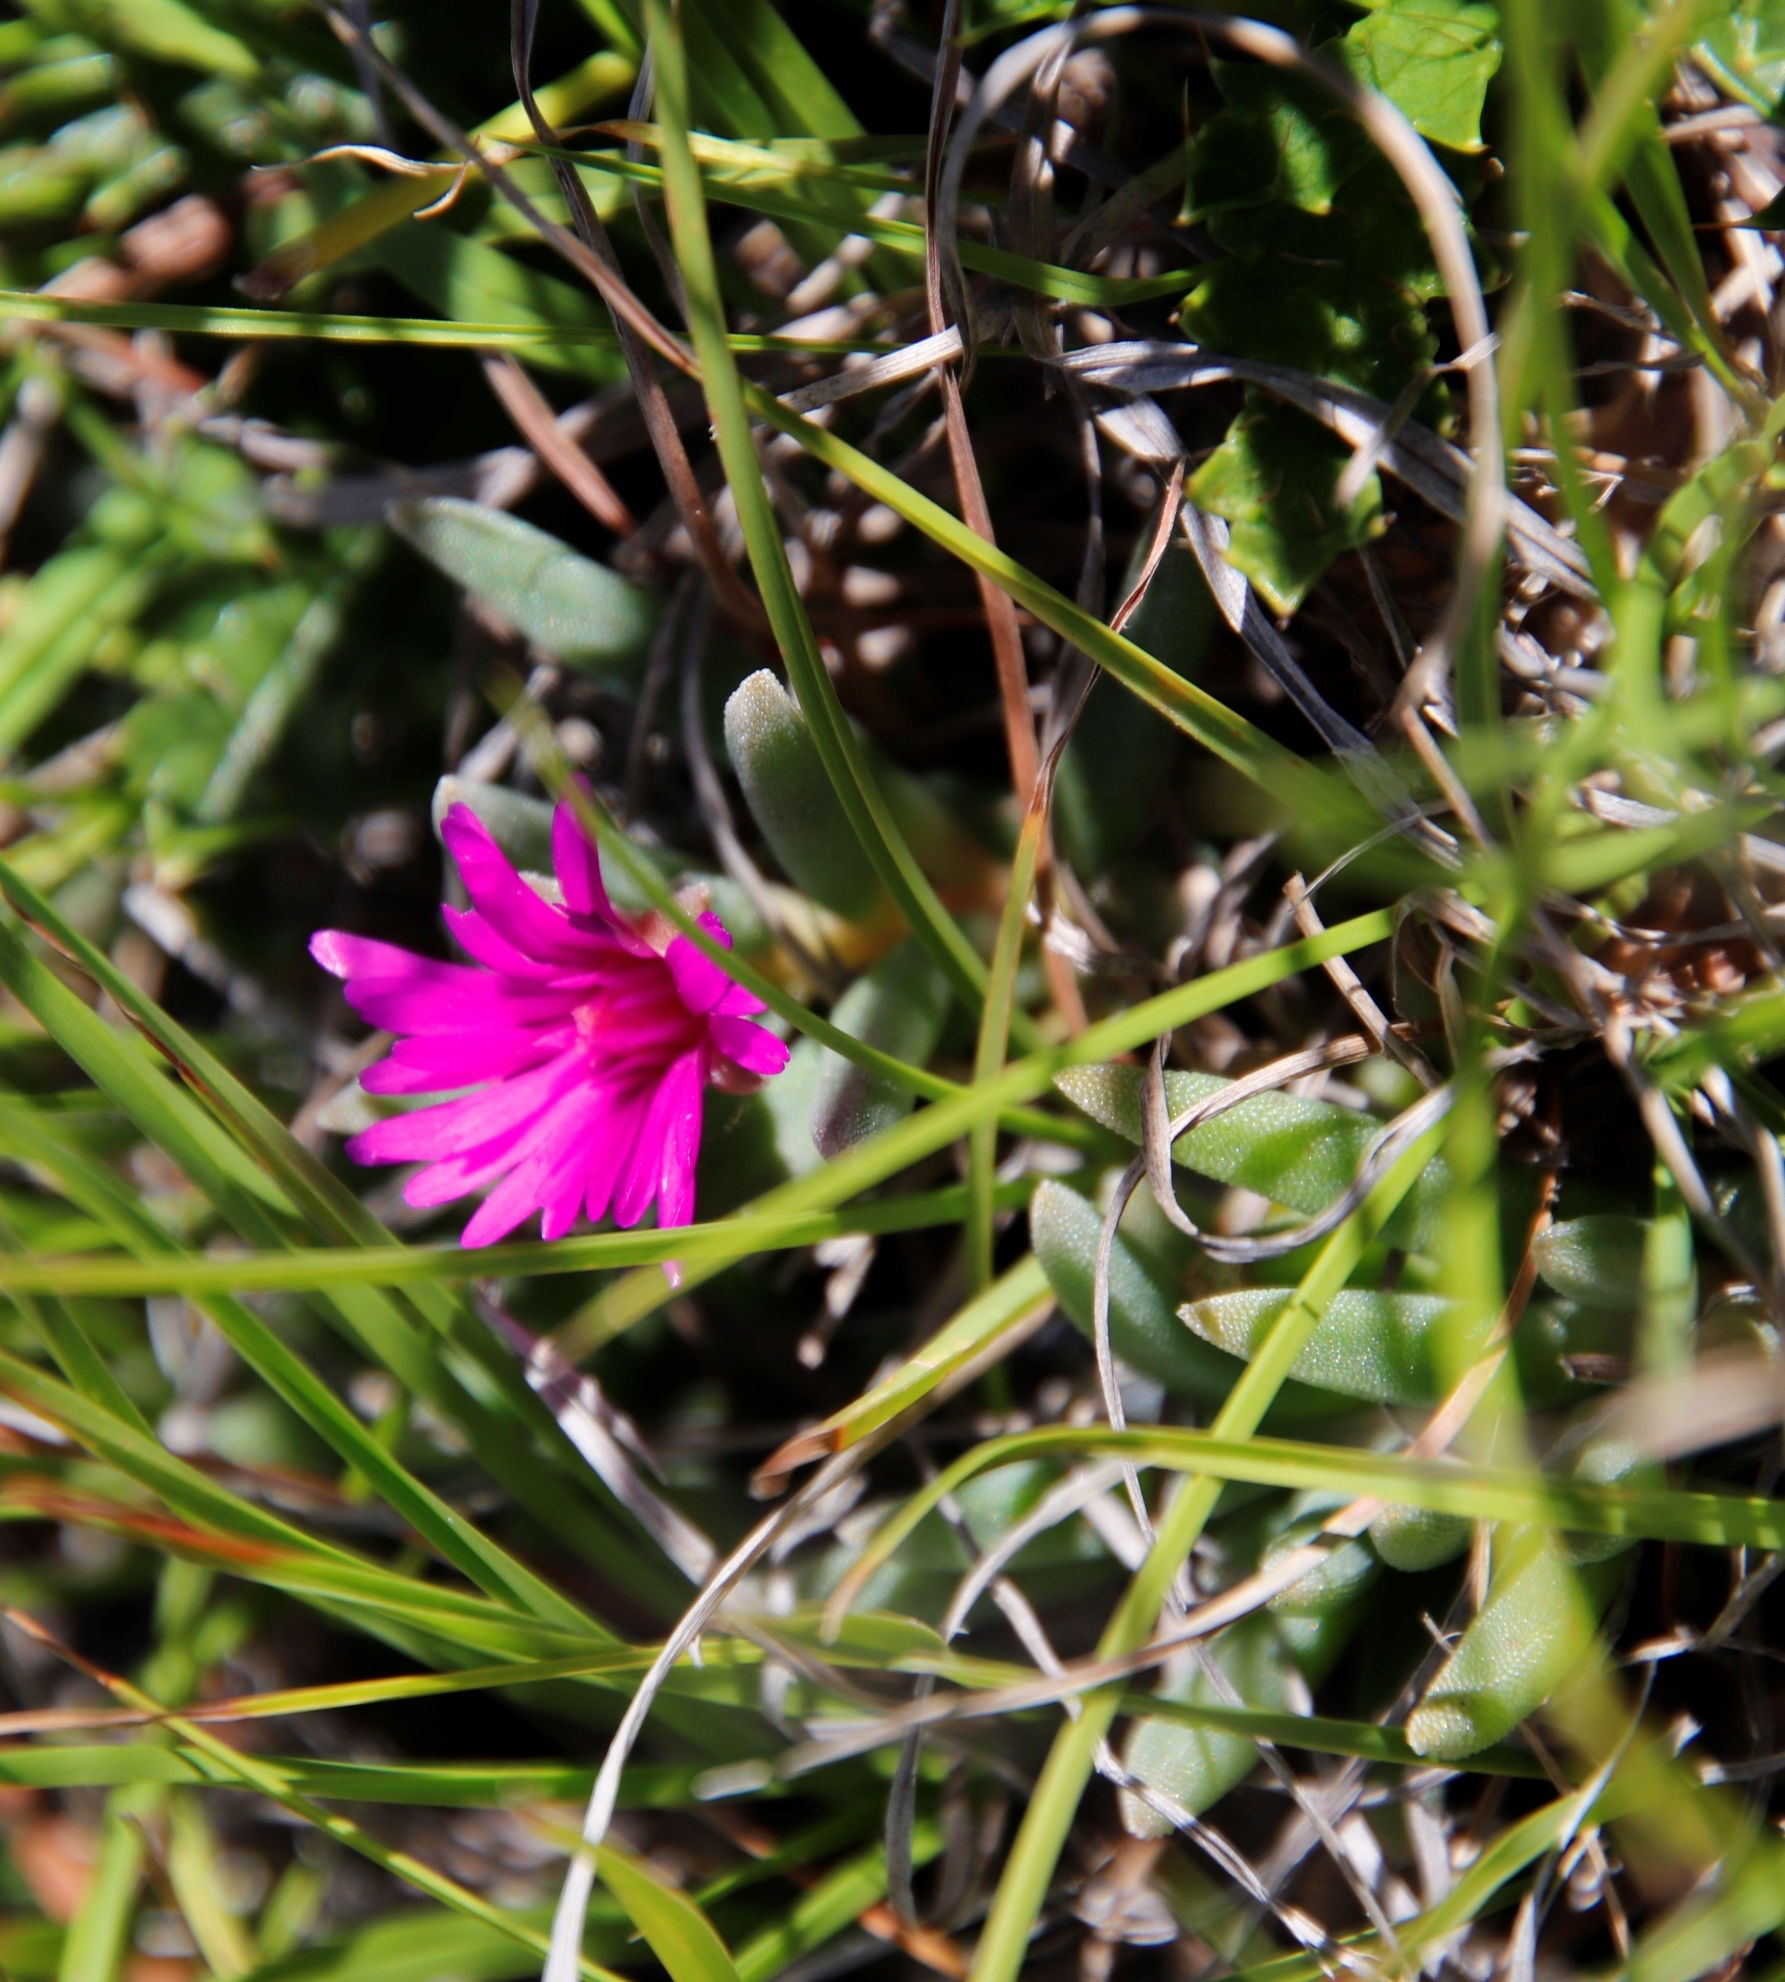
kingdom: Plantae
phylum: Tracheophyta
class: Magnoliopsida
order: Caryophyllales
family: Aizoaceae
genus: Delosperma
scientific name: Delosperma carterae
